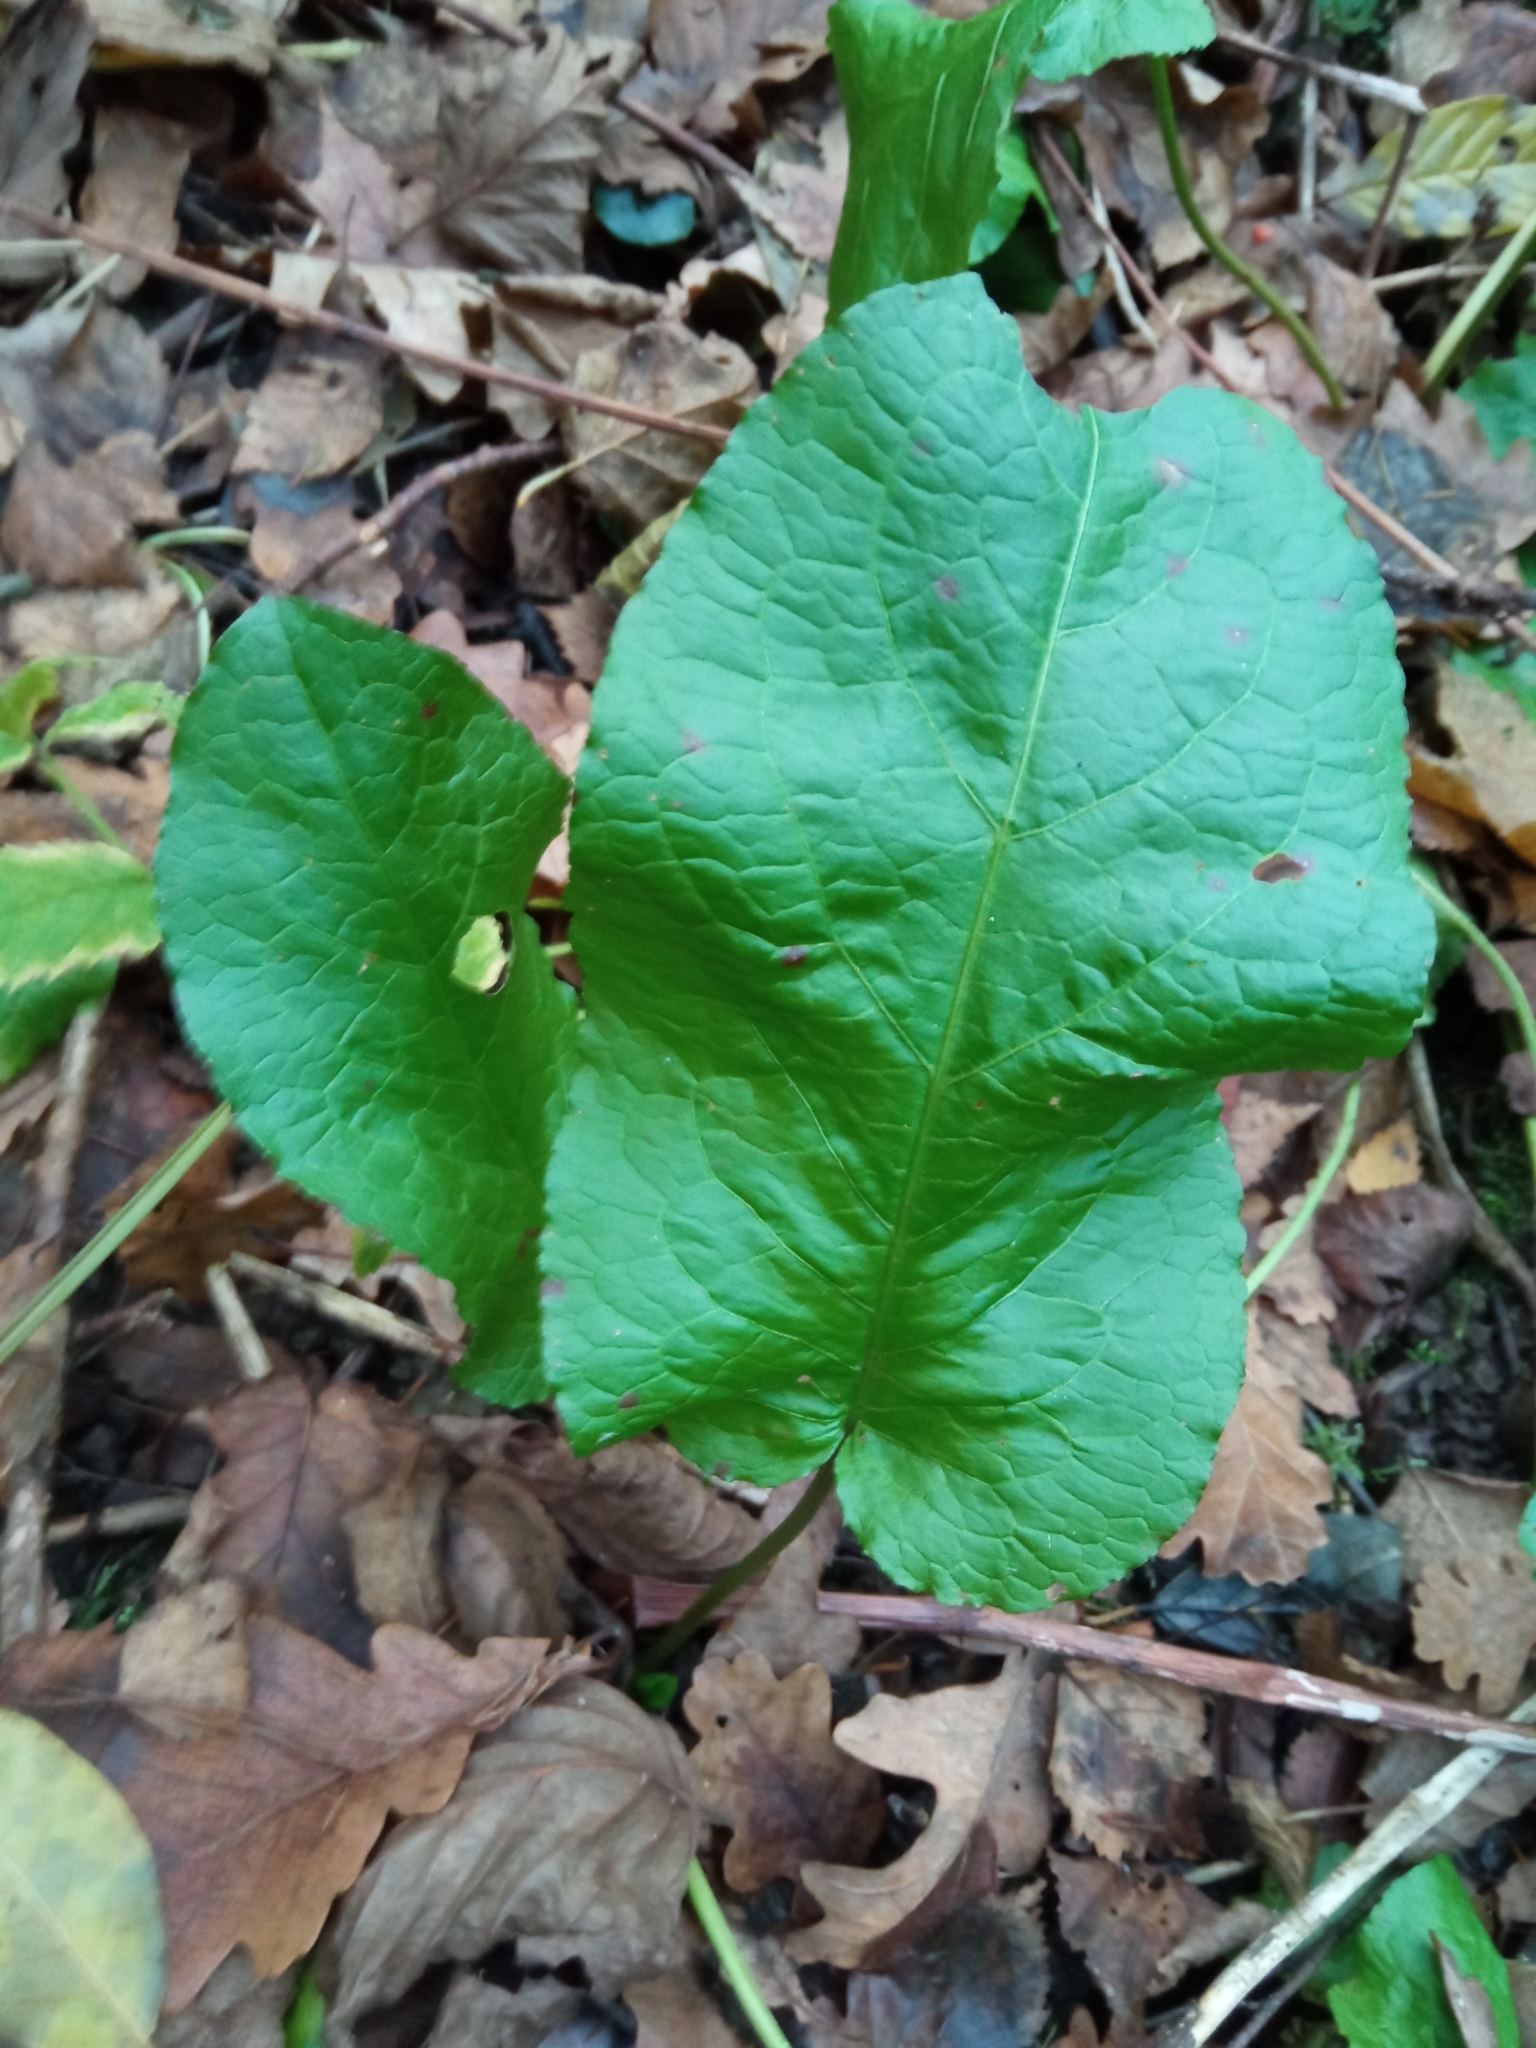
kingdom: Plantae
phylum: Tracheophyta
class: Magnoliopsida
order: Caryophyllales
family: Polygonaceae
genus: Rumex
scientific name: Rumex obtusifolius
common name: Bitter dock
